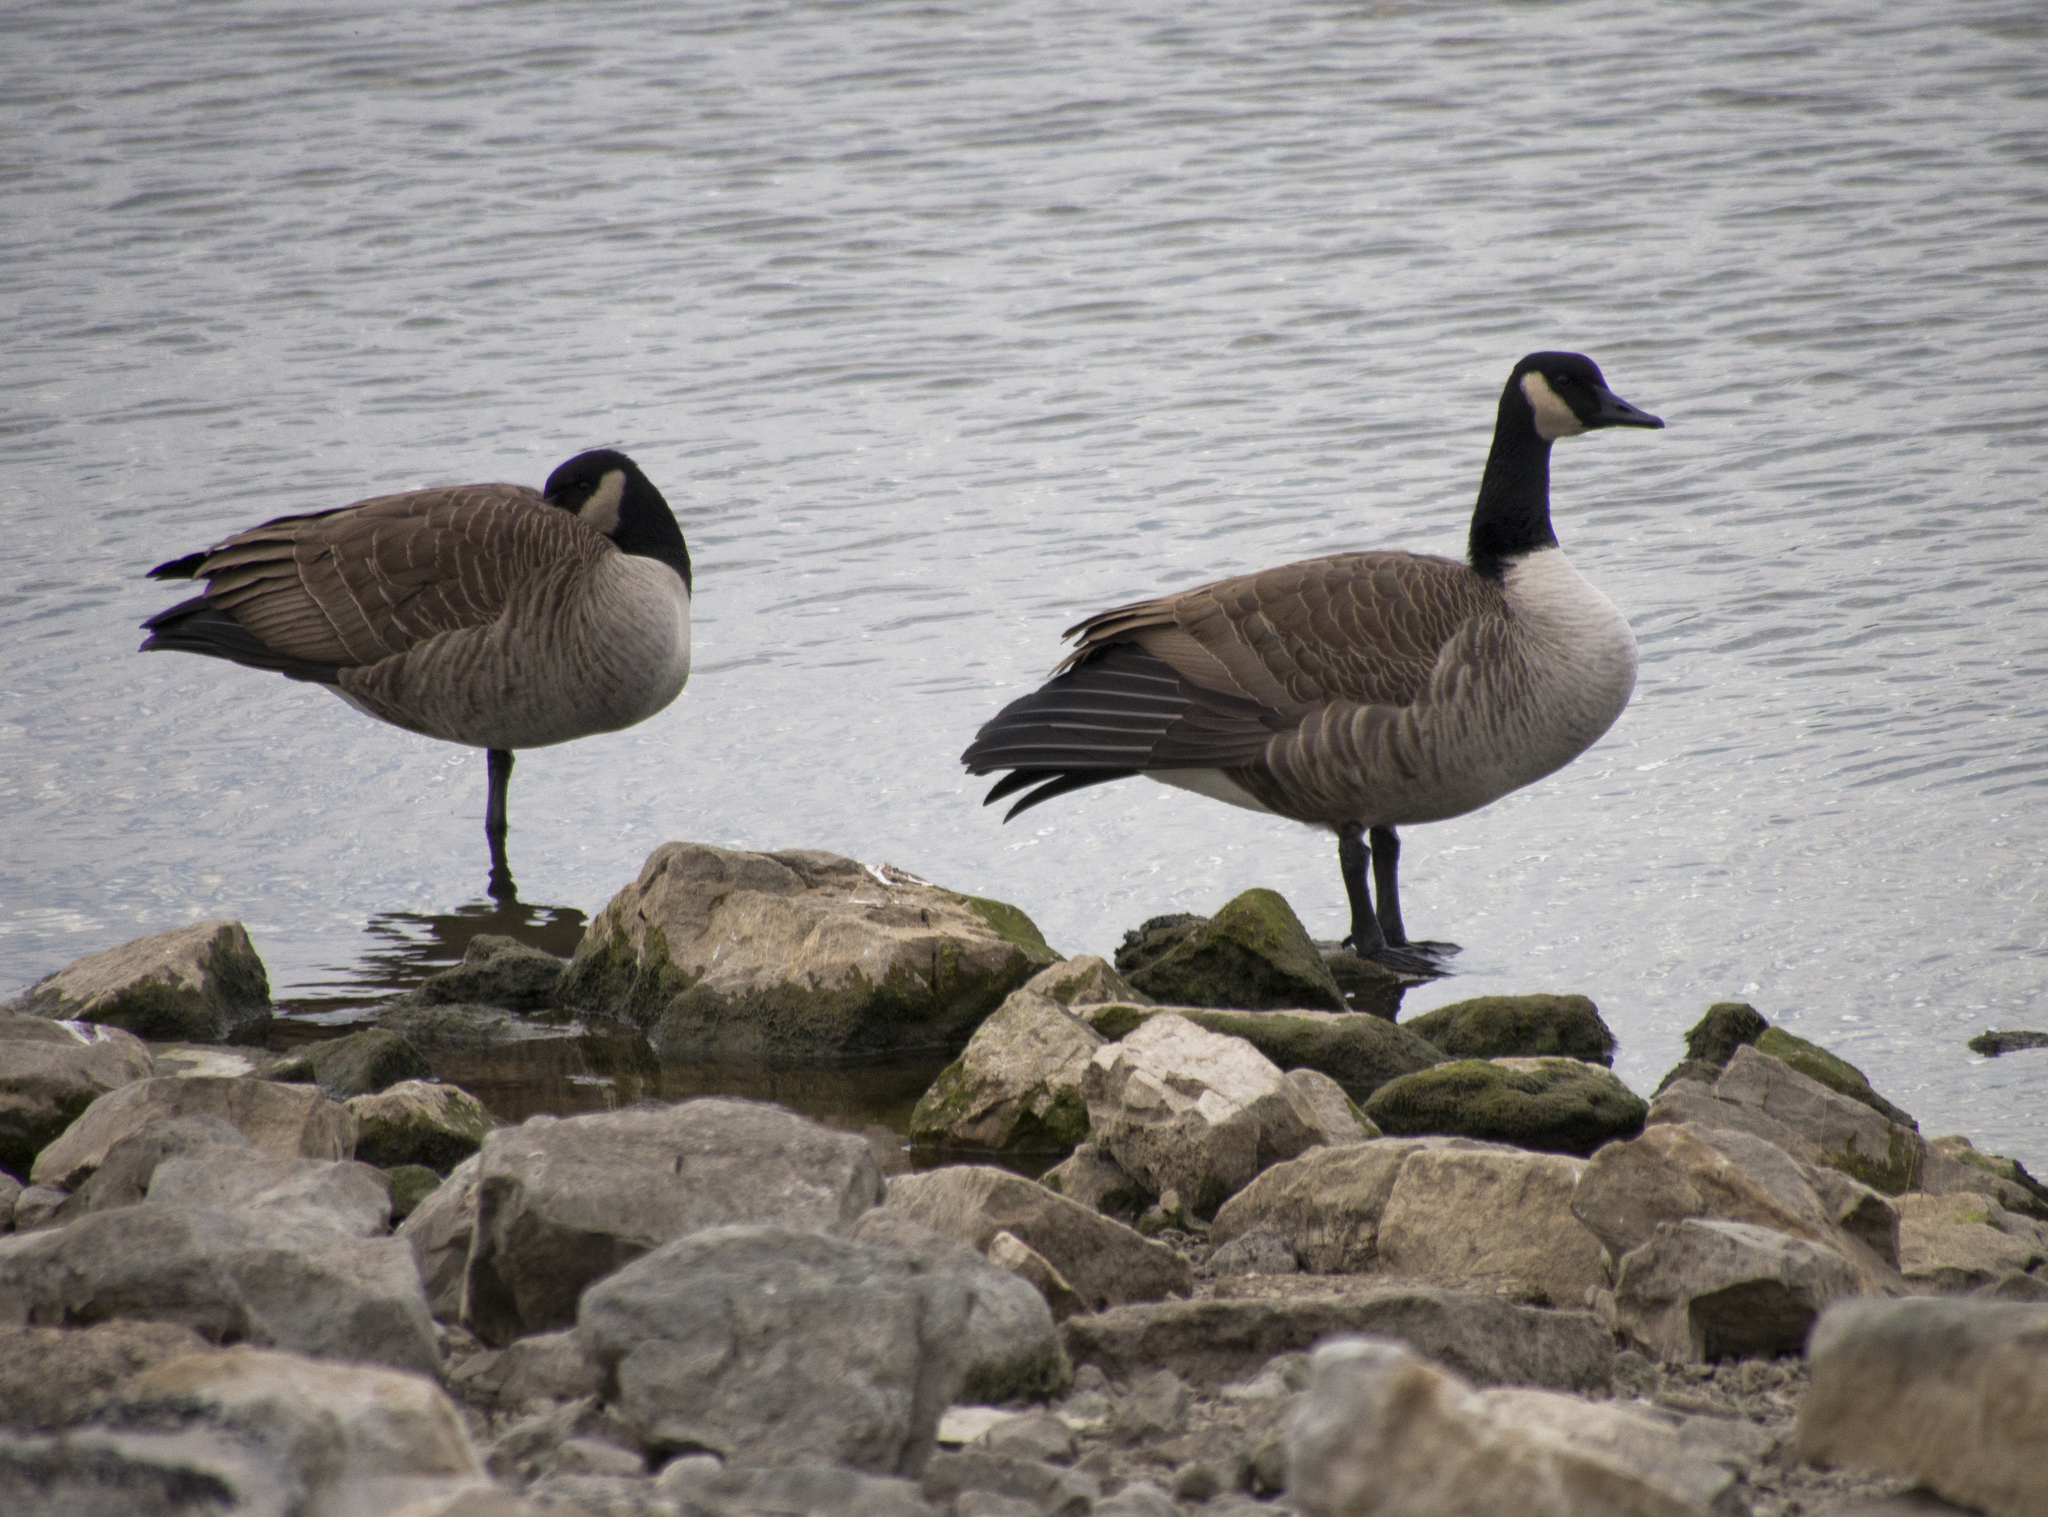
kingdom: Animalia
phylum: Chordata
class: Aves
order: Anseriformes
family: Anatidae
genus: Branta
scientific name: Branta canadensis
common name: Canada goose
